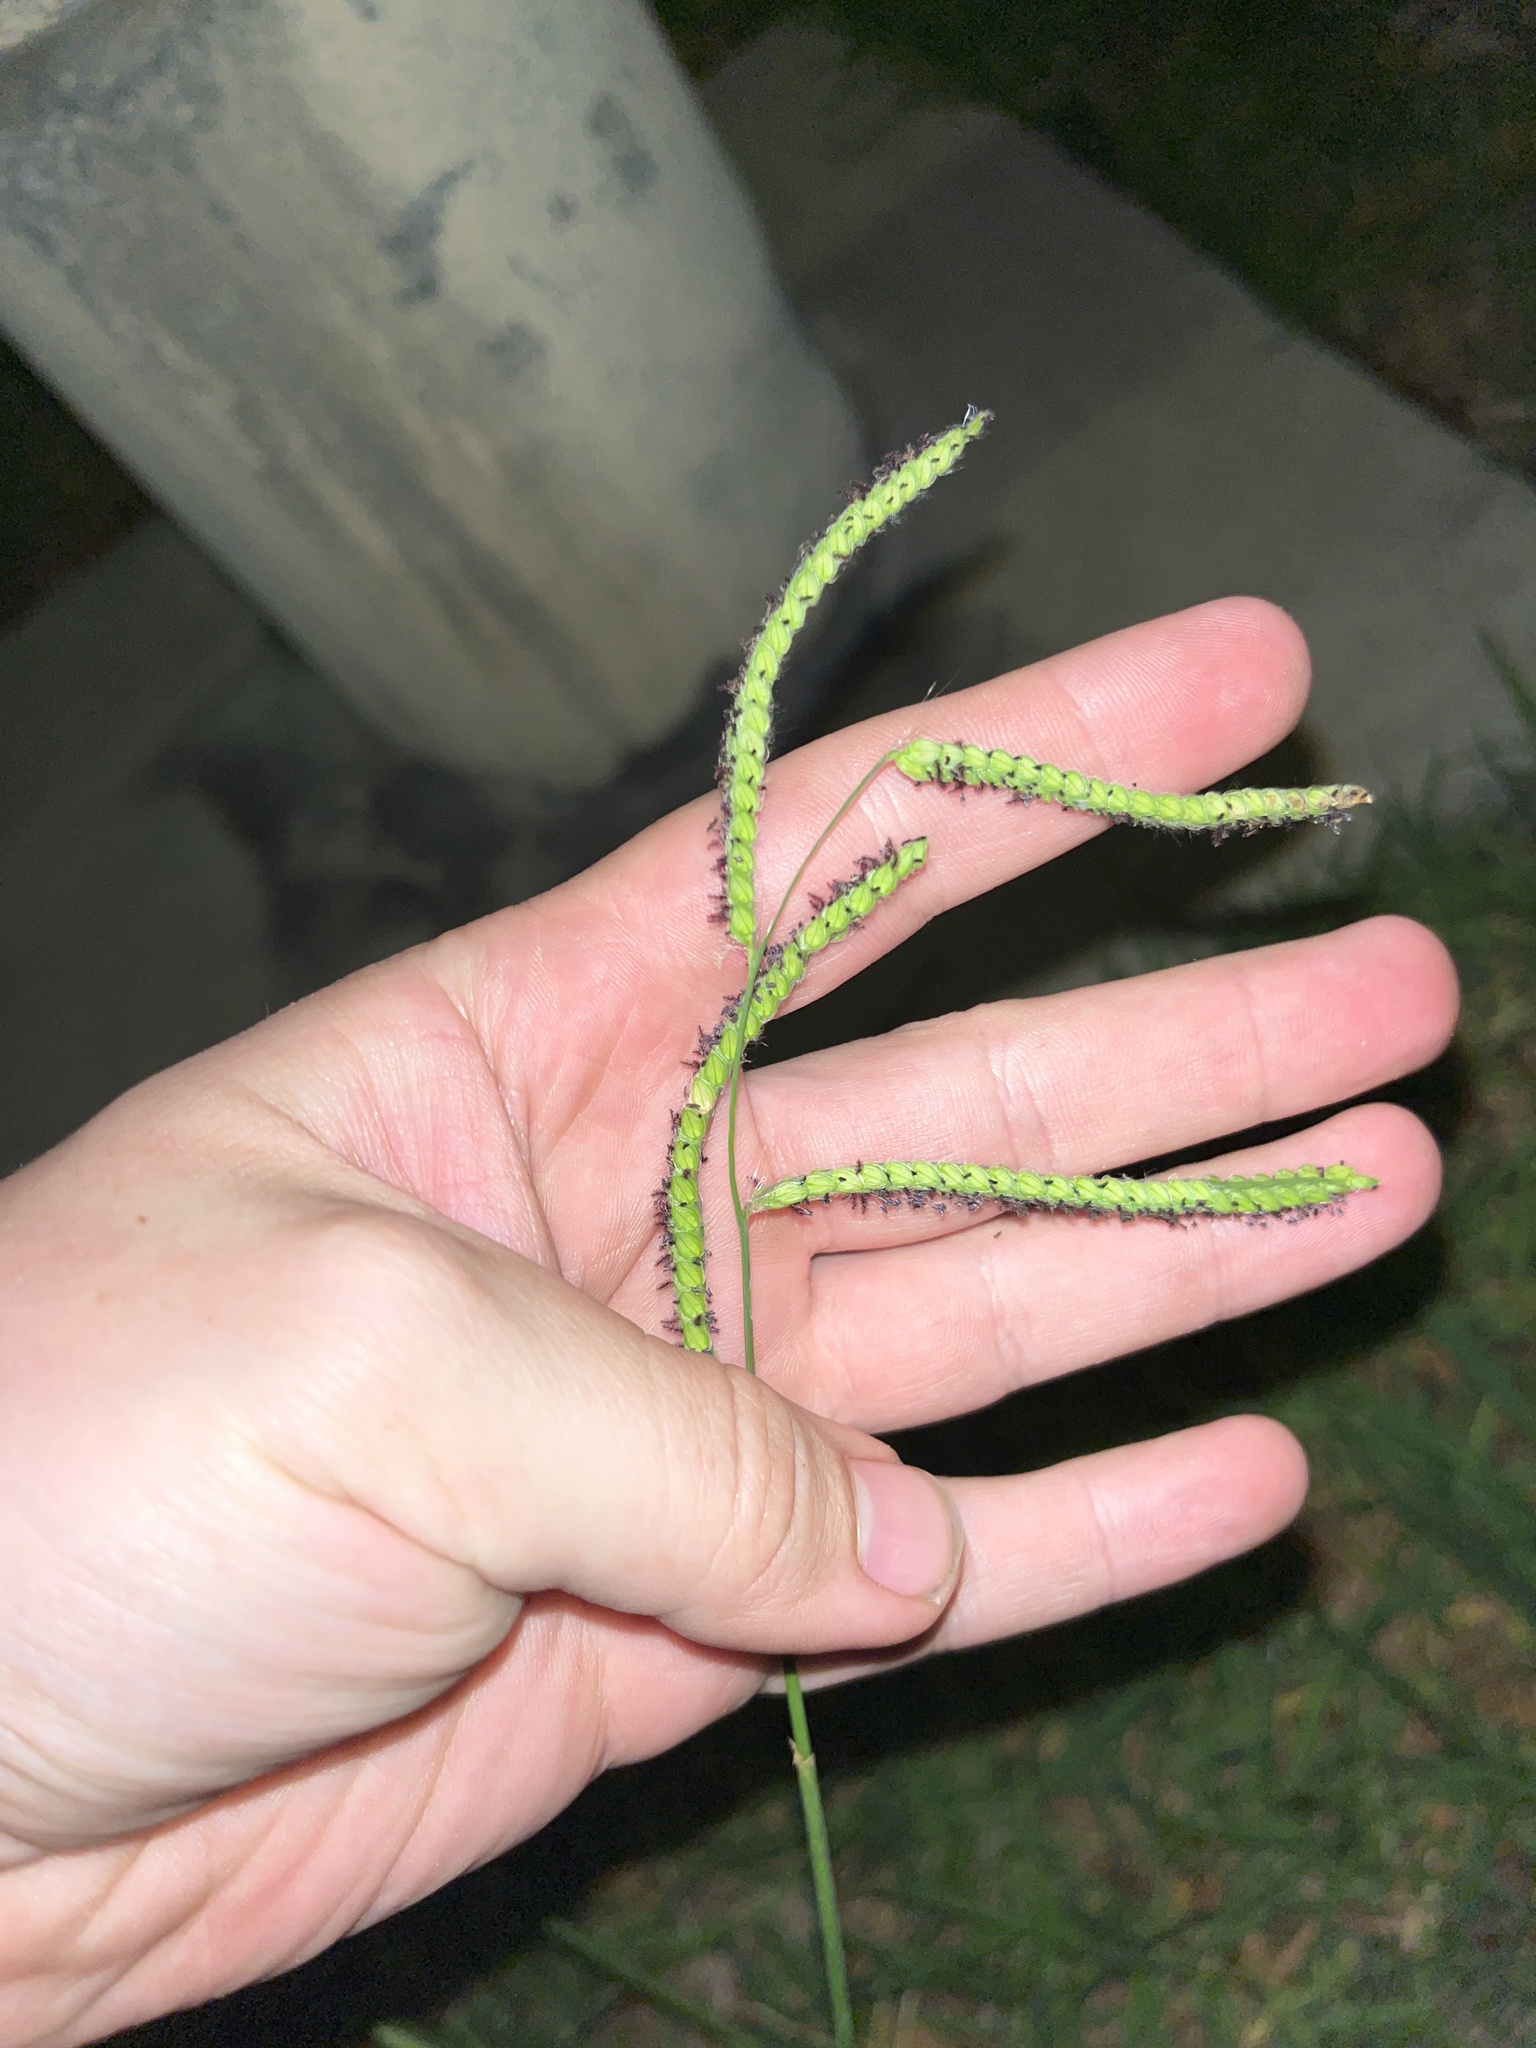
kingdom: Plantae
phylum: Tracheophyta
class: Liliopsida
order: Poales
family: Poaceae
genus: Paspalum
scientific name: Paspalum dilatatum
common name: Dallisgrass
